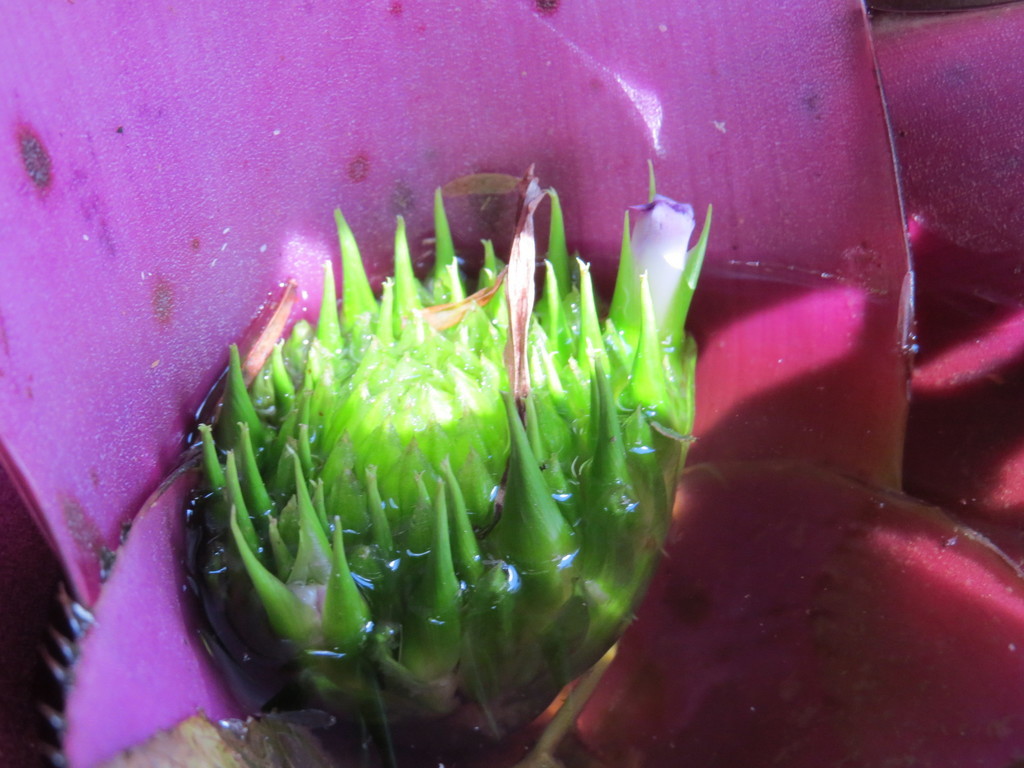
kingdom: Plantae
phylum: Tracheophyta
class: Liliopsida
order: Poales
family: Bromeliaceae
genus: Neoregelia
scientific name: Neoregelia concentrica
